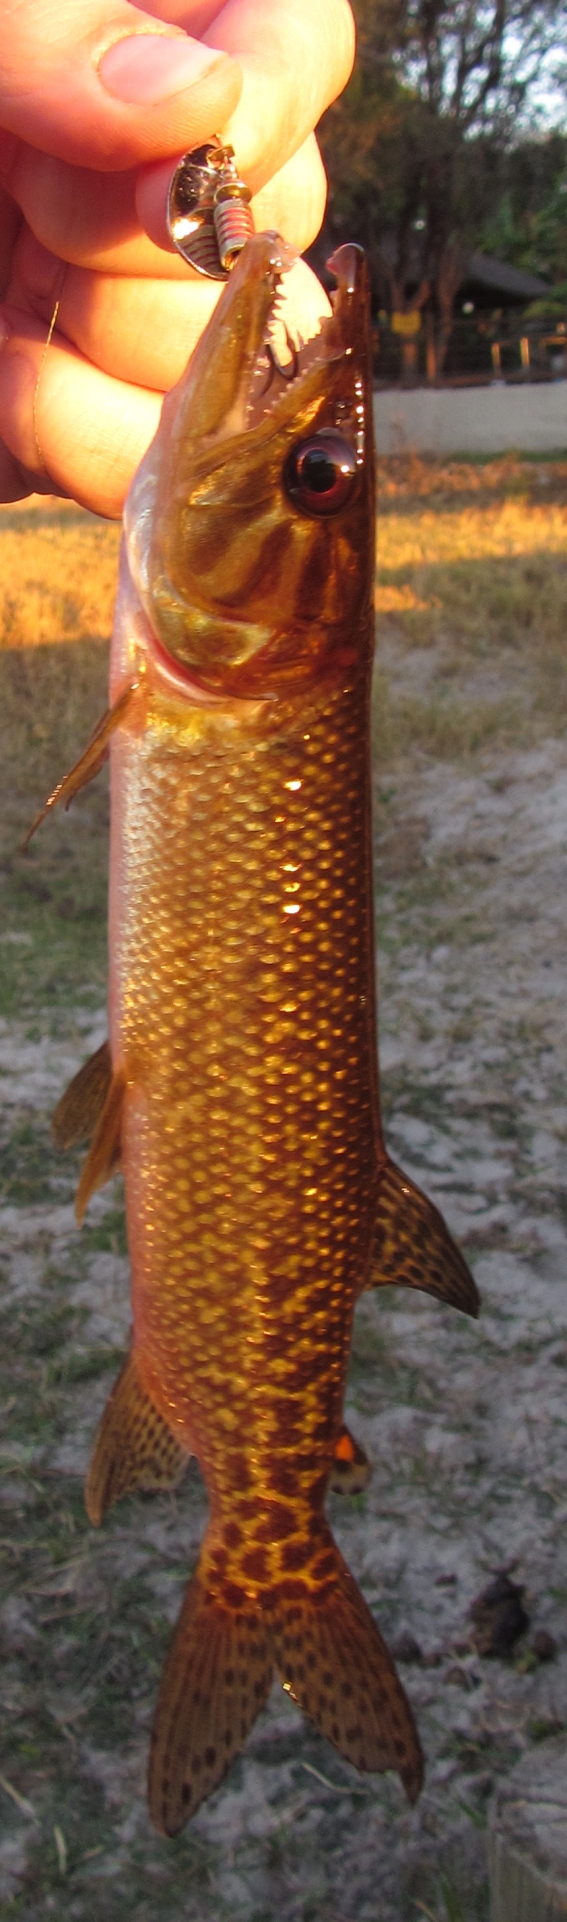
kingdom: Animalia
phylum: Chordata
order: Characiformes
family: Hepsetidae
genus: Hepsetus
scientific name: Hepsetus cuvieri
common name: African pike
